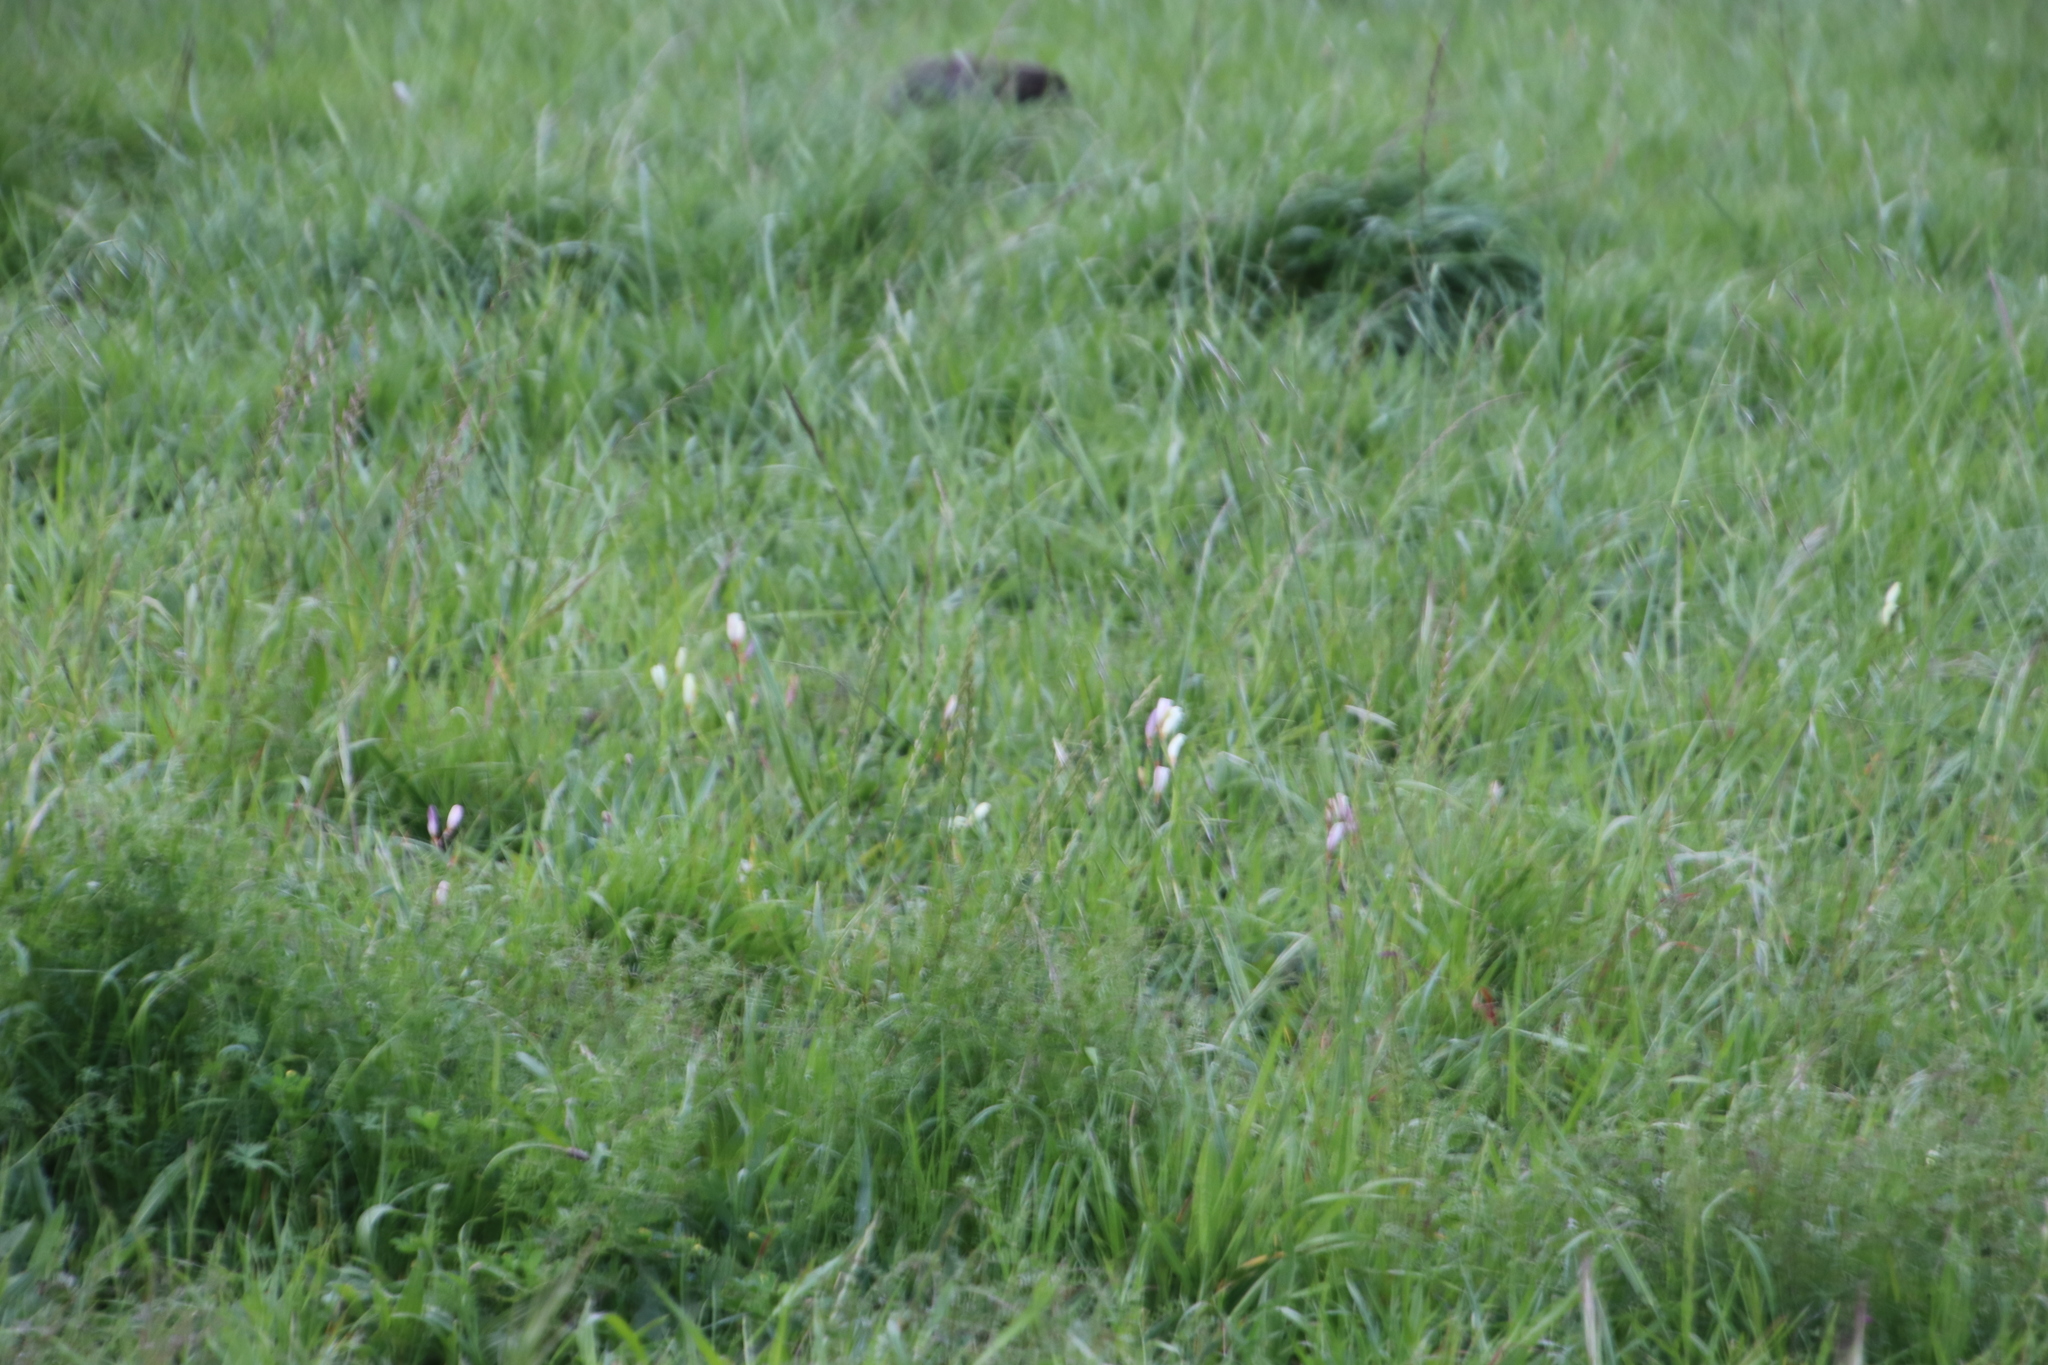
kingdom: Plantae
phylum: Tracheophyta
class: Liliopsida
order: Asparagales
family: Iridaceae
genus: Sparaxis
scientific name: Sparaxis bulbifera
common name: Harlequin-flower
